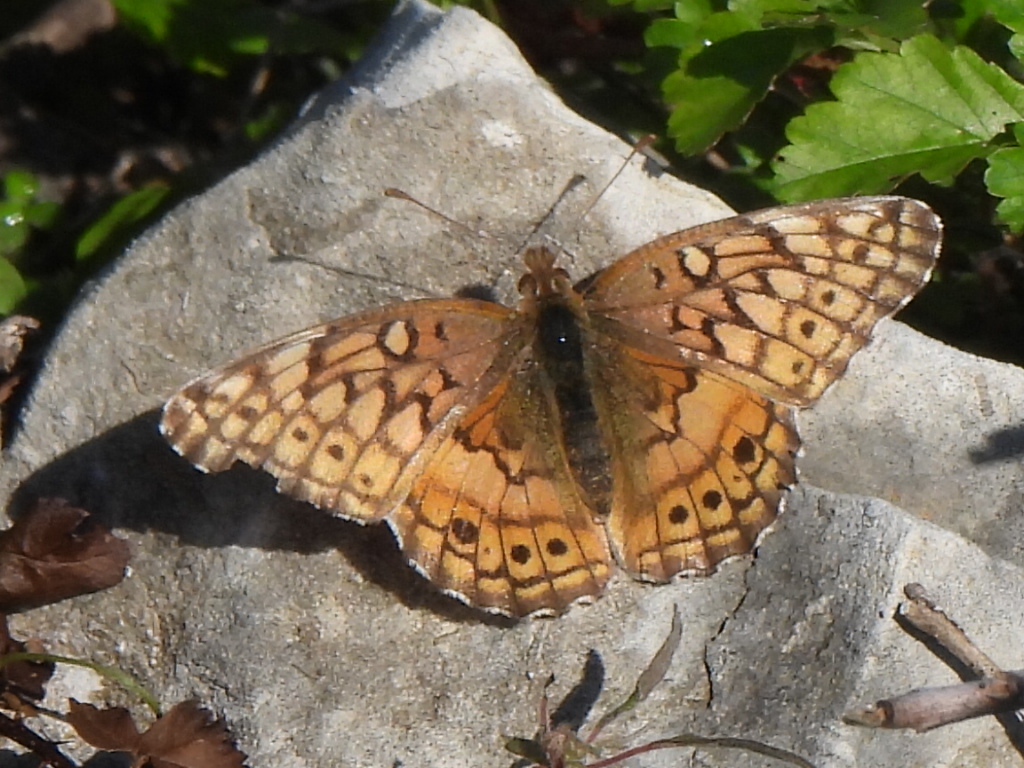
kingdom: Animalia
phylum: Arthropoda
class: Insecta
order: Lepidoptera
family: Nymphalidae
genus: Euptoieta
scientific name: Euptoieta claudia
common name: Variegated fritillary
